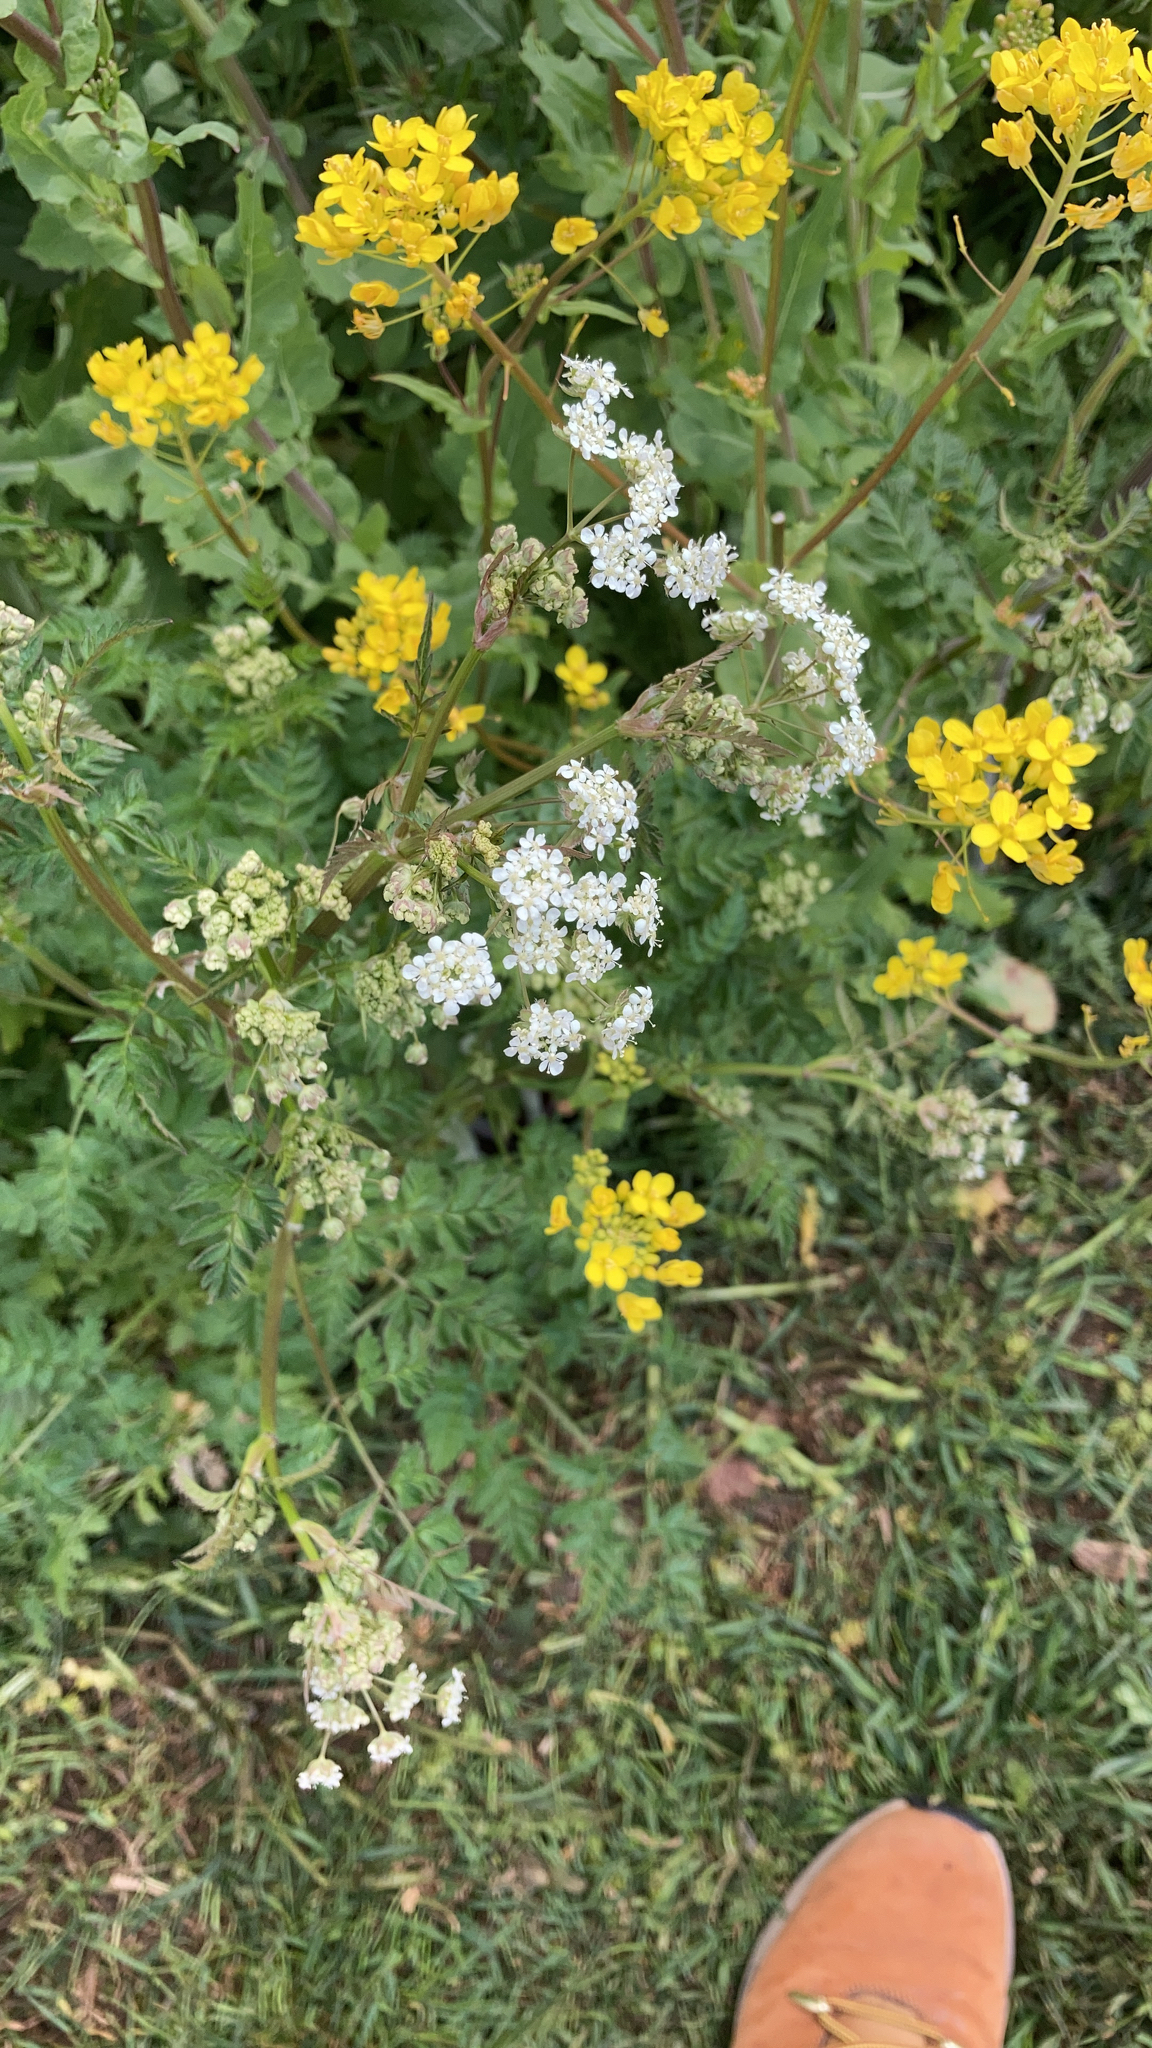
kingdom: Plantae
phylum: Tracheophyta
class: Magnoliopsida
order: Apiales
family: Apiaceae
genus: Anthriscus
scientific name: Anthriscus sylvestris
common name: Cow parsley
